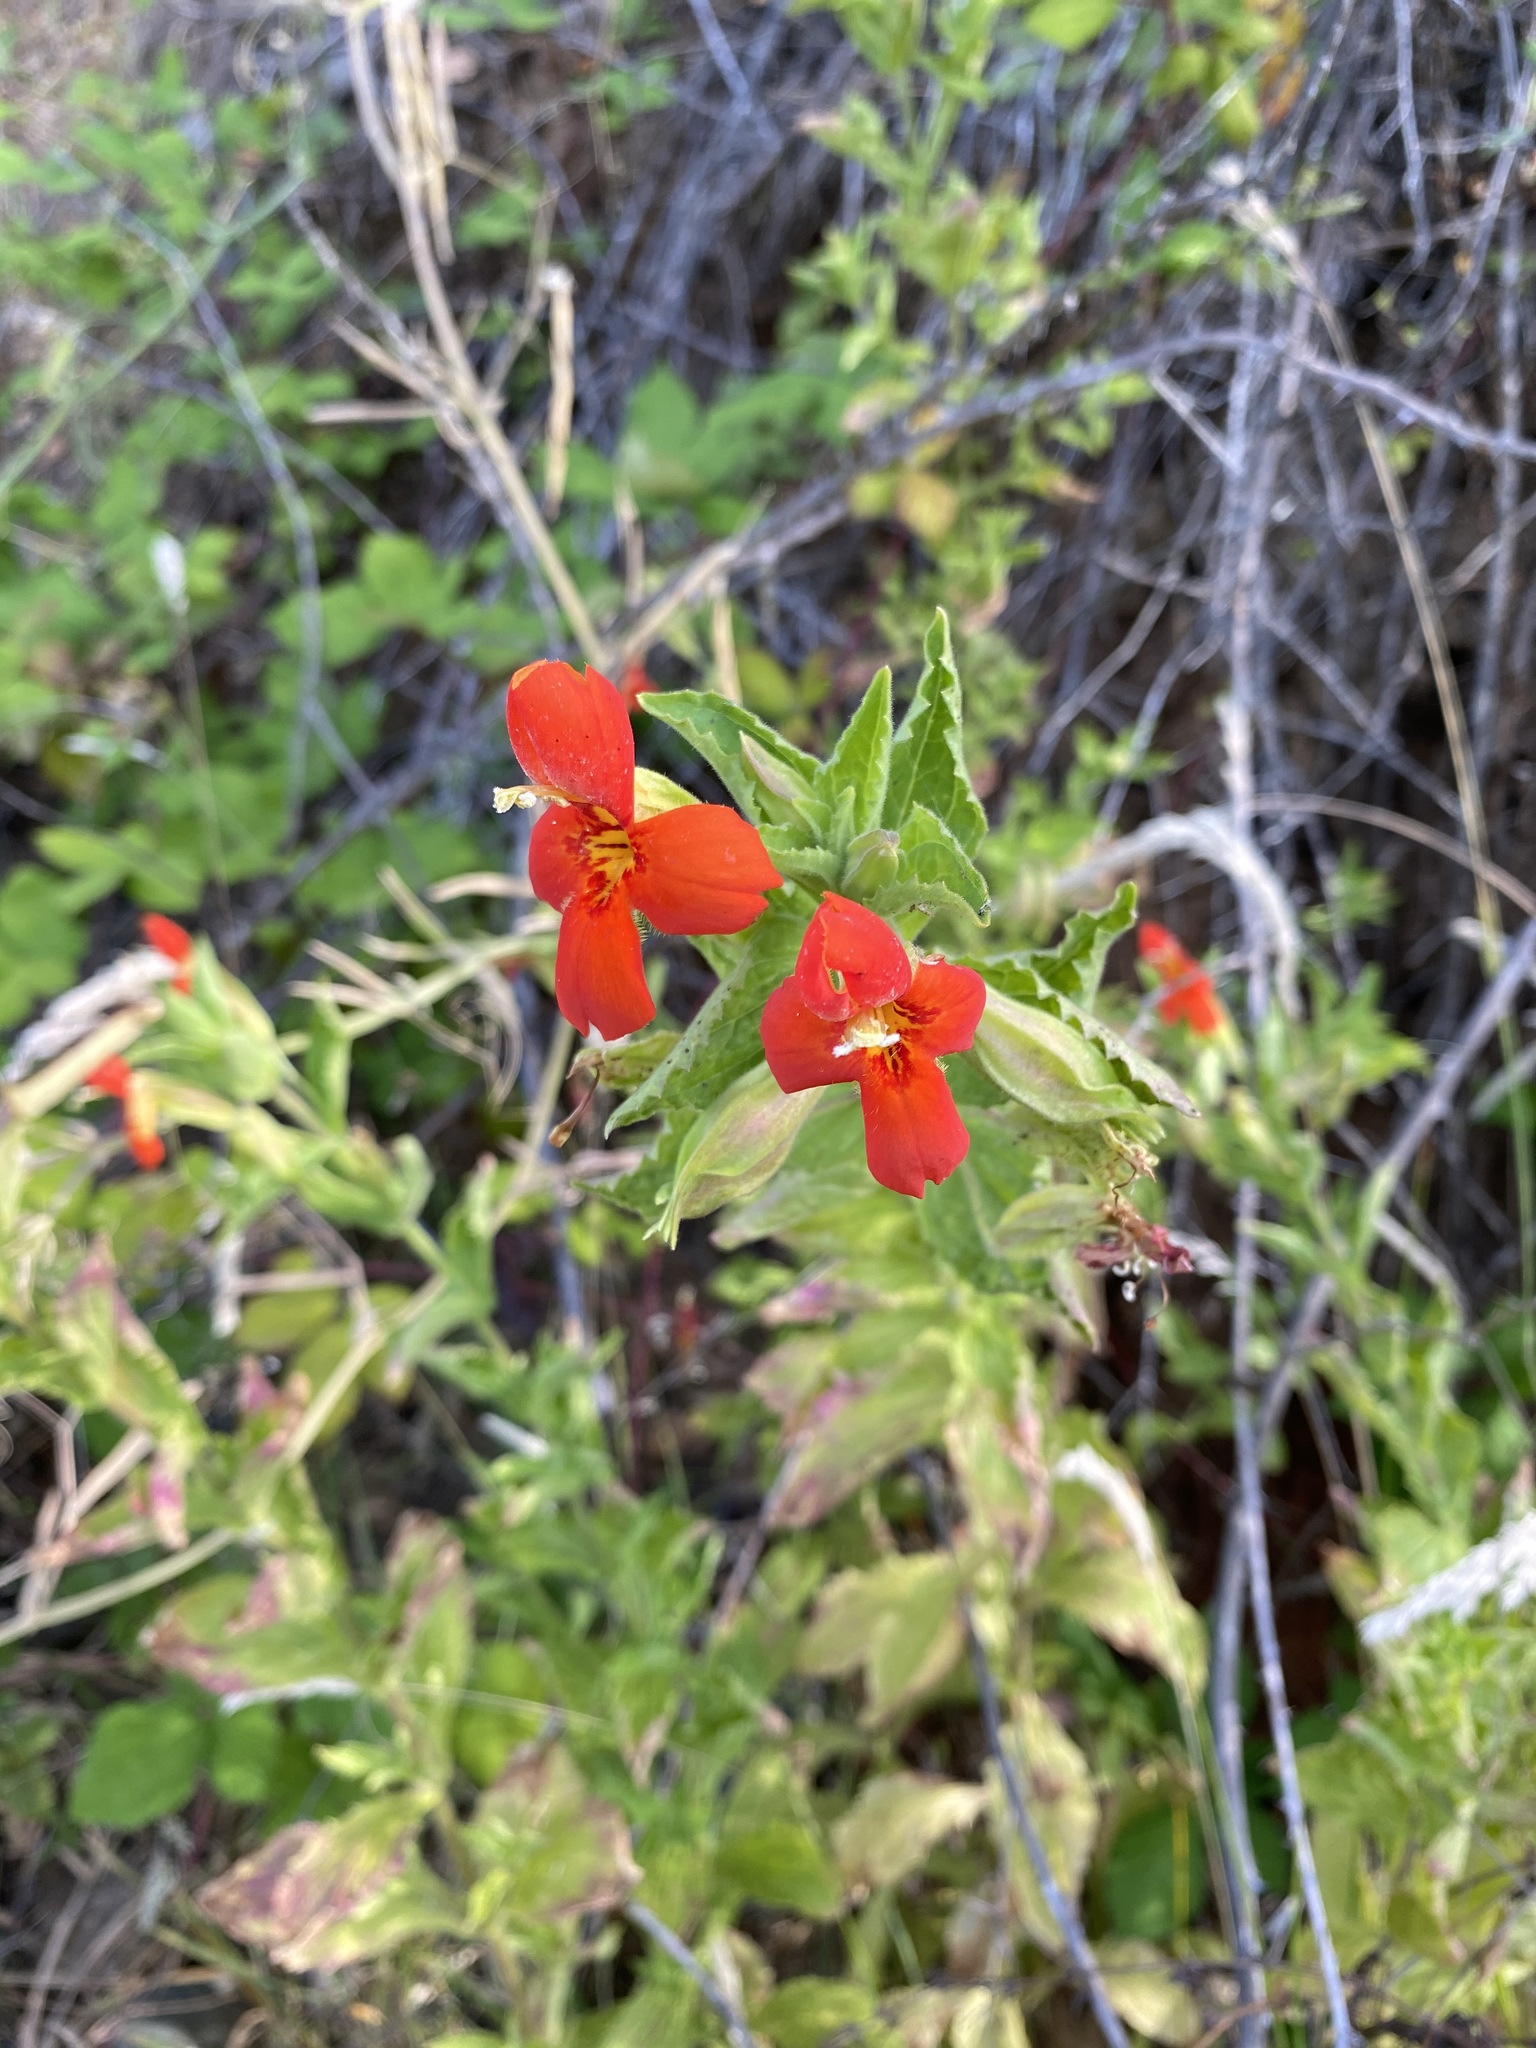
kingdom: Plantae
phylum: Tracheophyta
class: Magnoliopsida
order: Lamiales
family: Phrymaceae
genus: Erythranthe
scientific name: Erythranthe cardinalis
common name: Scarlet monkey-flower
